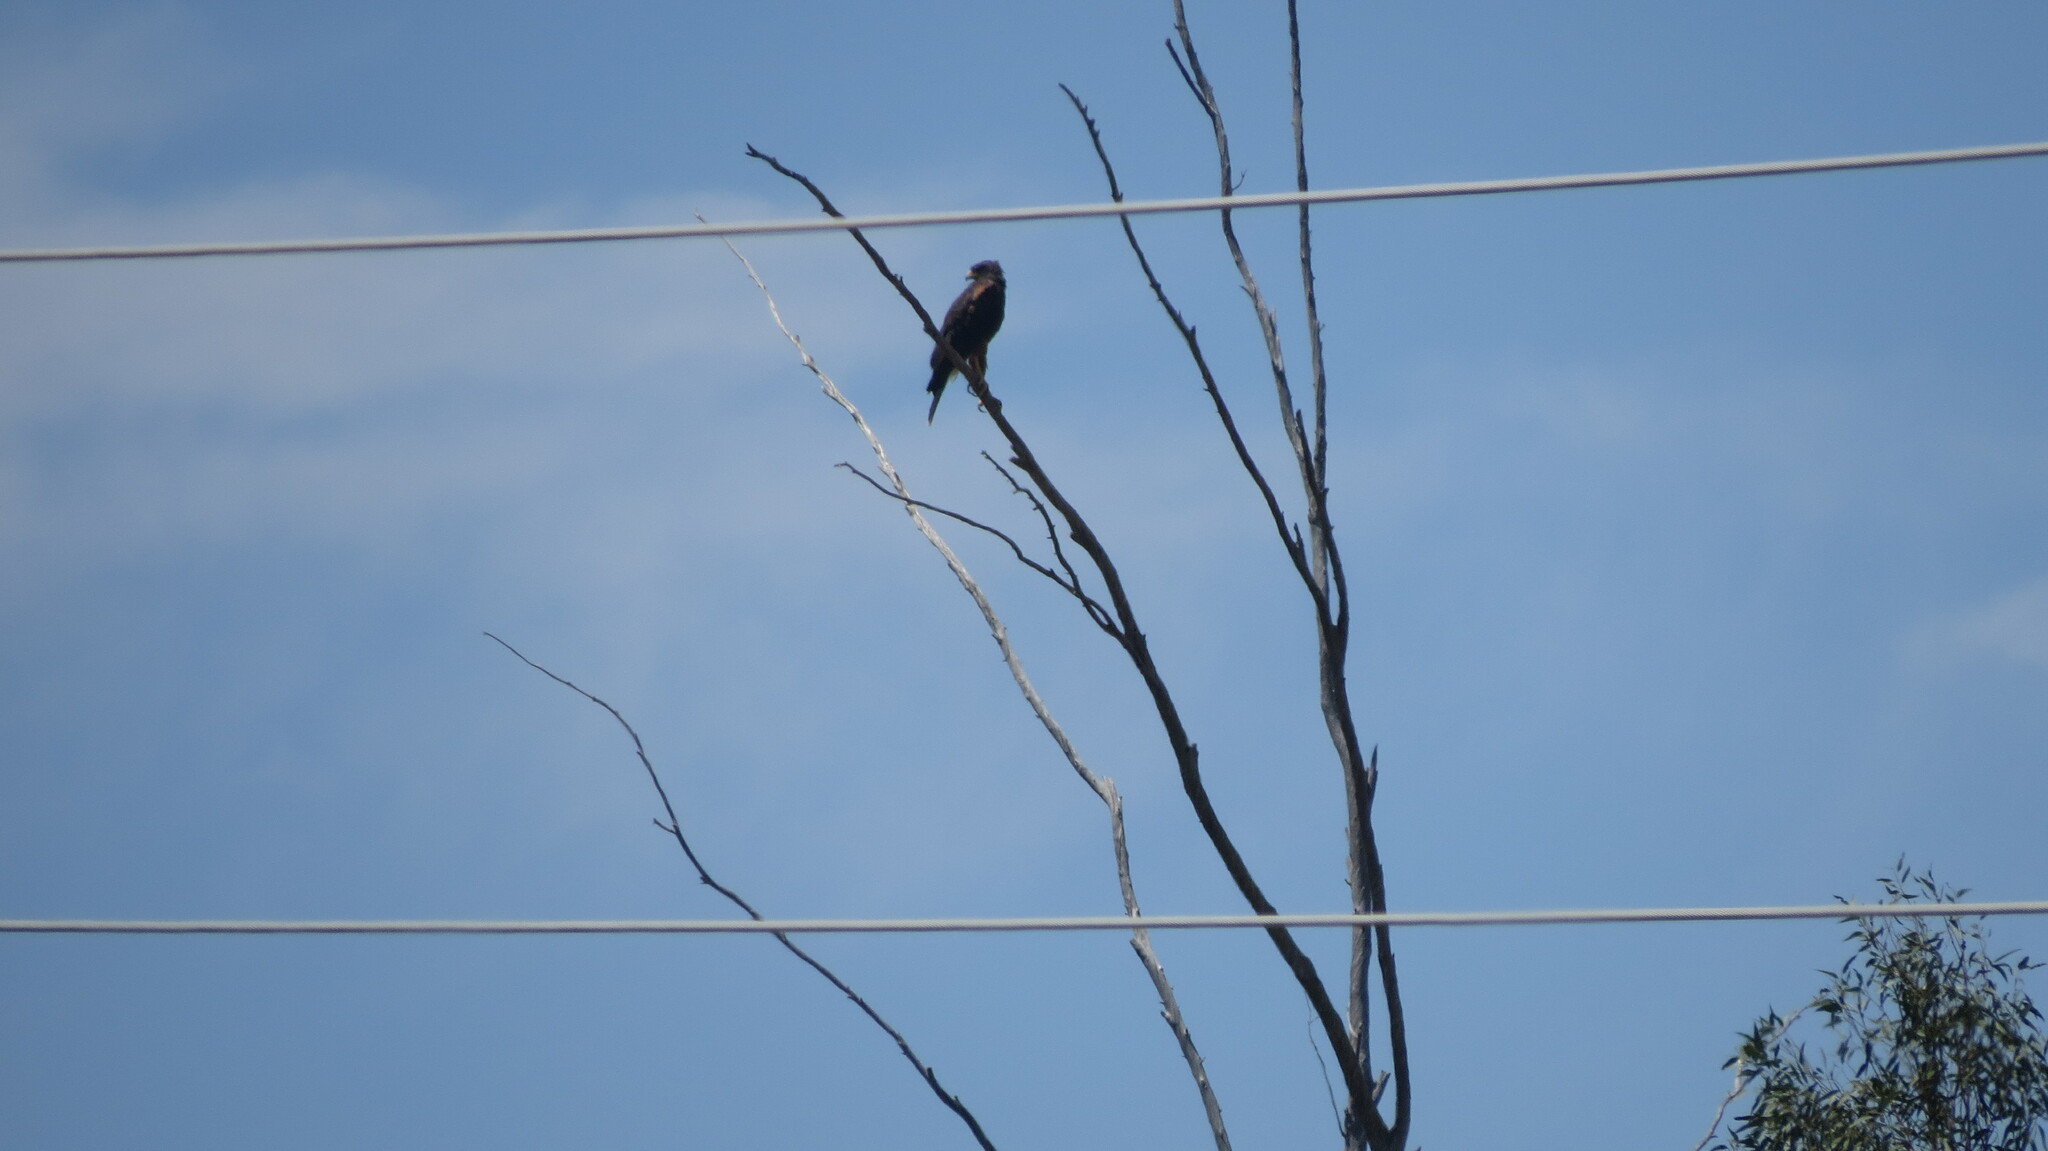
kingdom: Animalia
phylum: Chordata
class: Aves
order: Accipitriformes
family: Accipitridae
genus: Parabuteo
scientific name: Parabuteo unicinctus
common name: Harris's hawk
